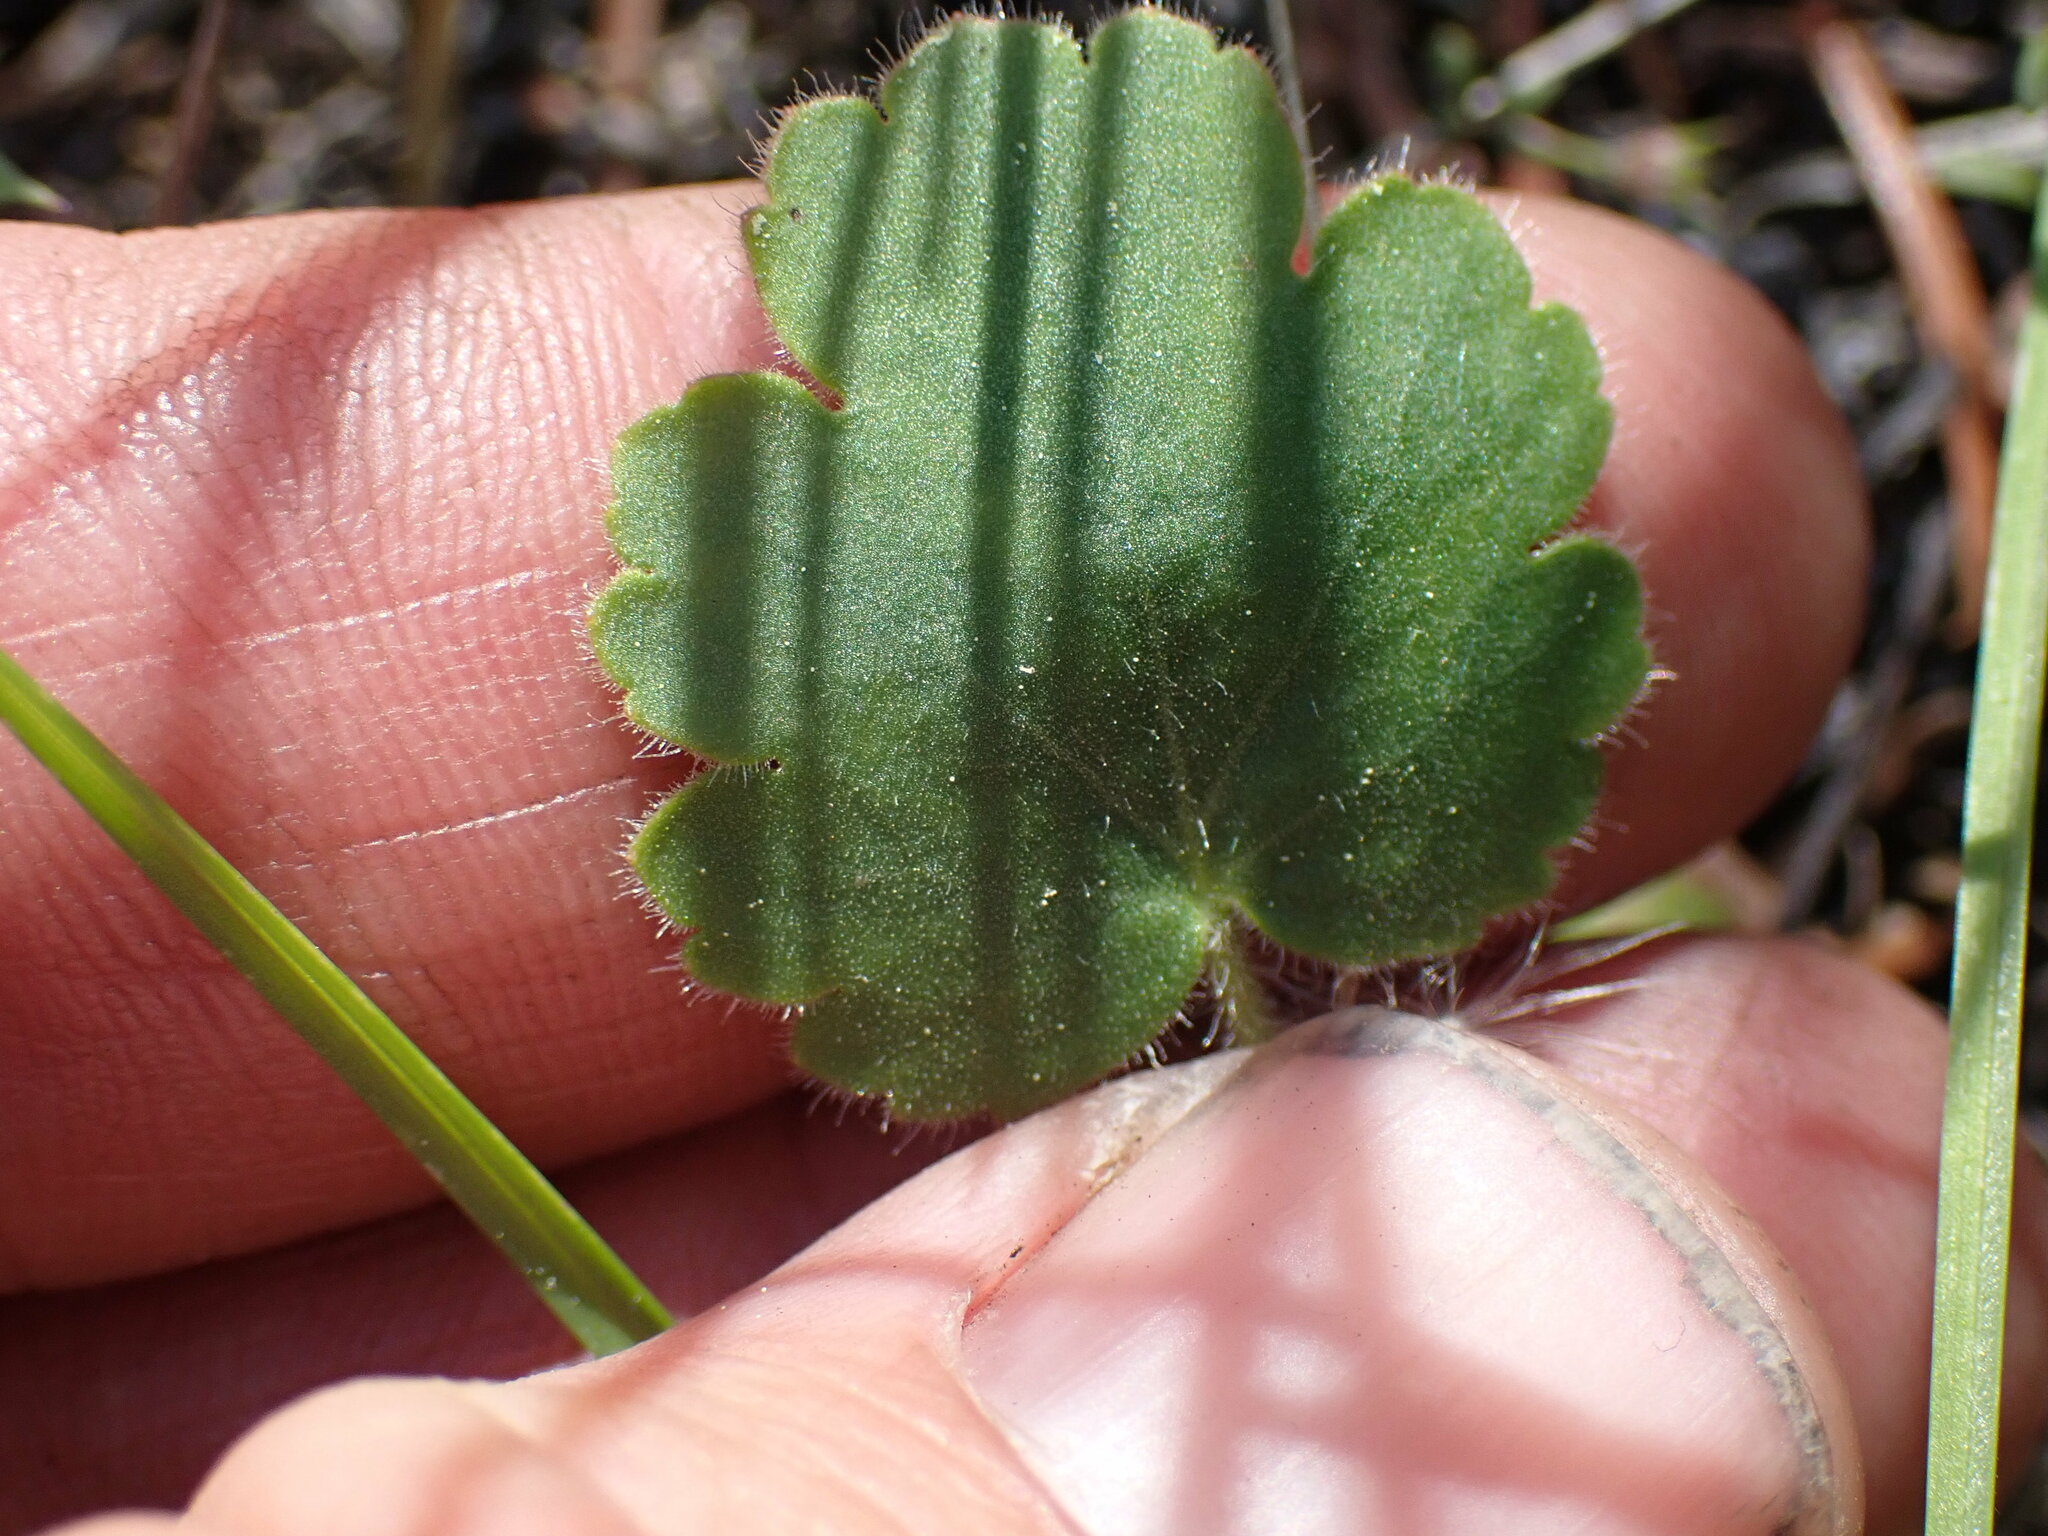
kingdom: Plantae
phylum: Tracheophyta
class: Magnoliopsida
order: Saxifragales
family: Saxifragaceae
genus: Heuchera
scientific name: Heuchera cylindrica
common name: Mat alumroot
